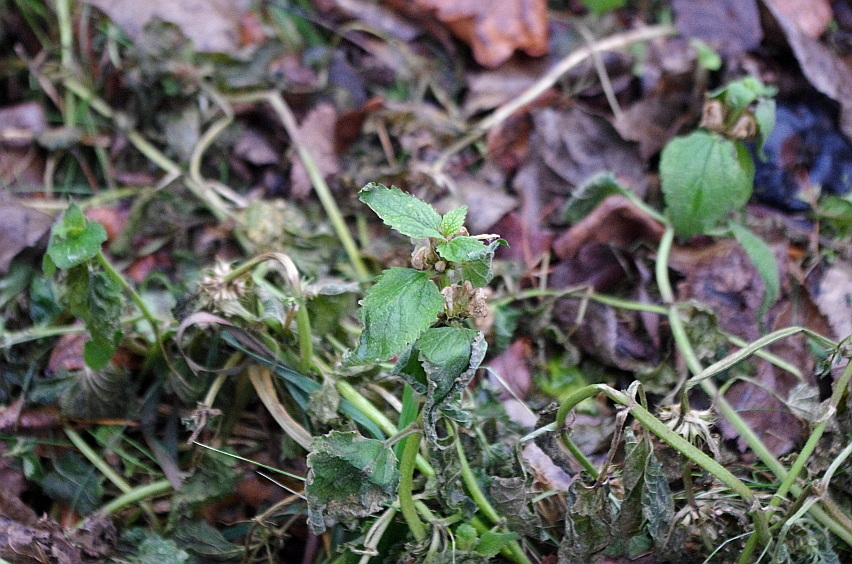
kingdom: Plantae
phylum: Tracheophyta
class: Magnoliopsida
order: Lamiales
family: Lamiaceae
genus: Lamium
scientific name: Lamium album
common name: White dead-nettle
